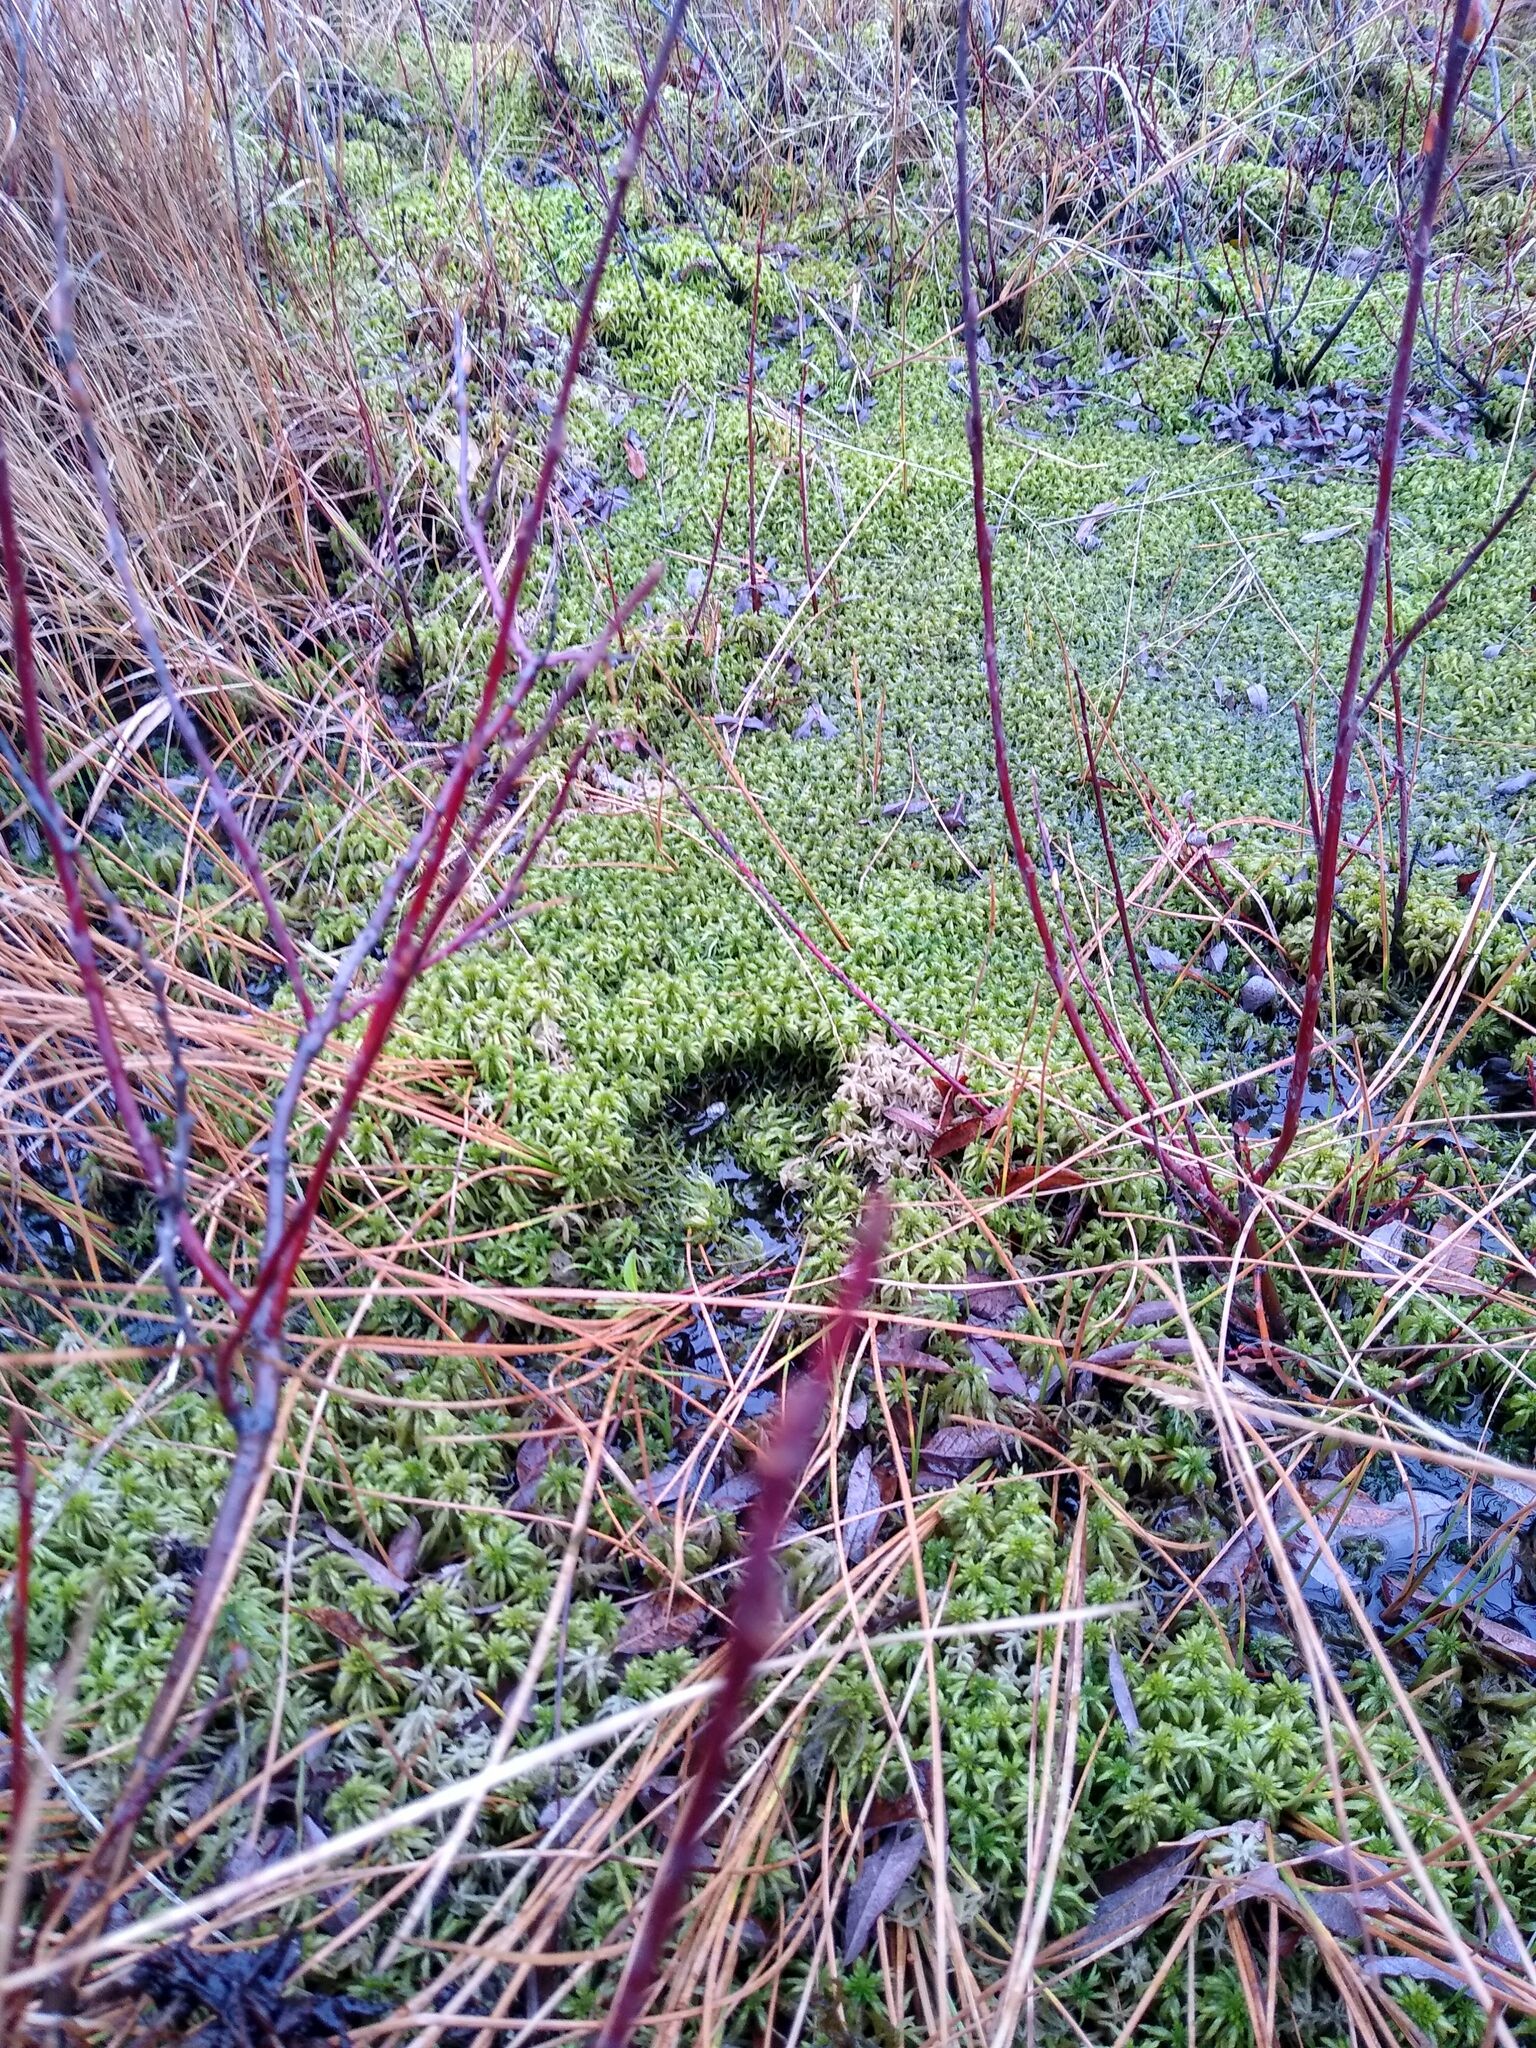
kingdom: Plantae
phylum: Bryophyta
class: Sphagnopsida
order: Sphagnales
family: Sphagnaceae
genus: Sphagnum
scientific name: Sphagnum riparium
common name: Streamside peat moss
